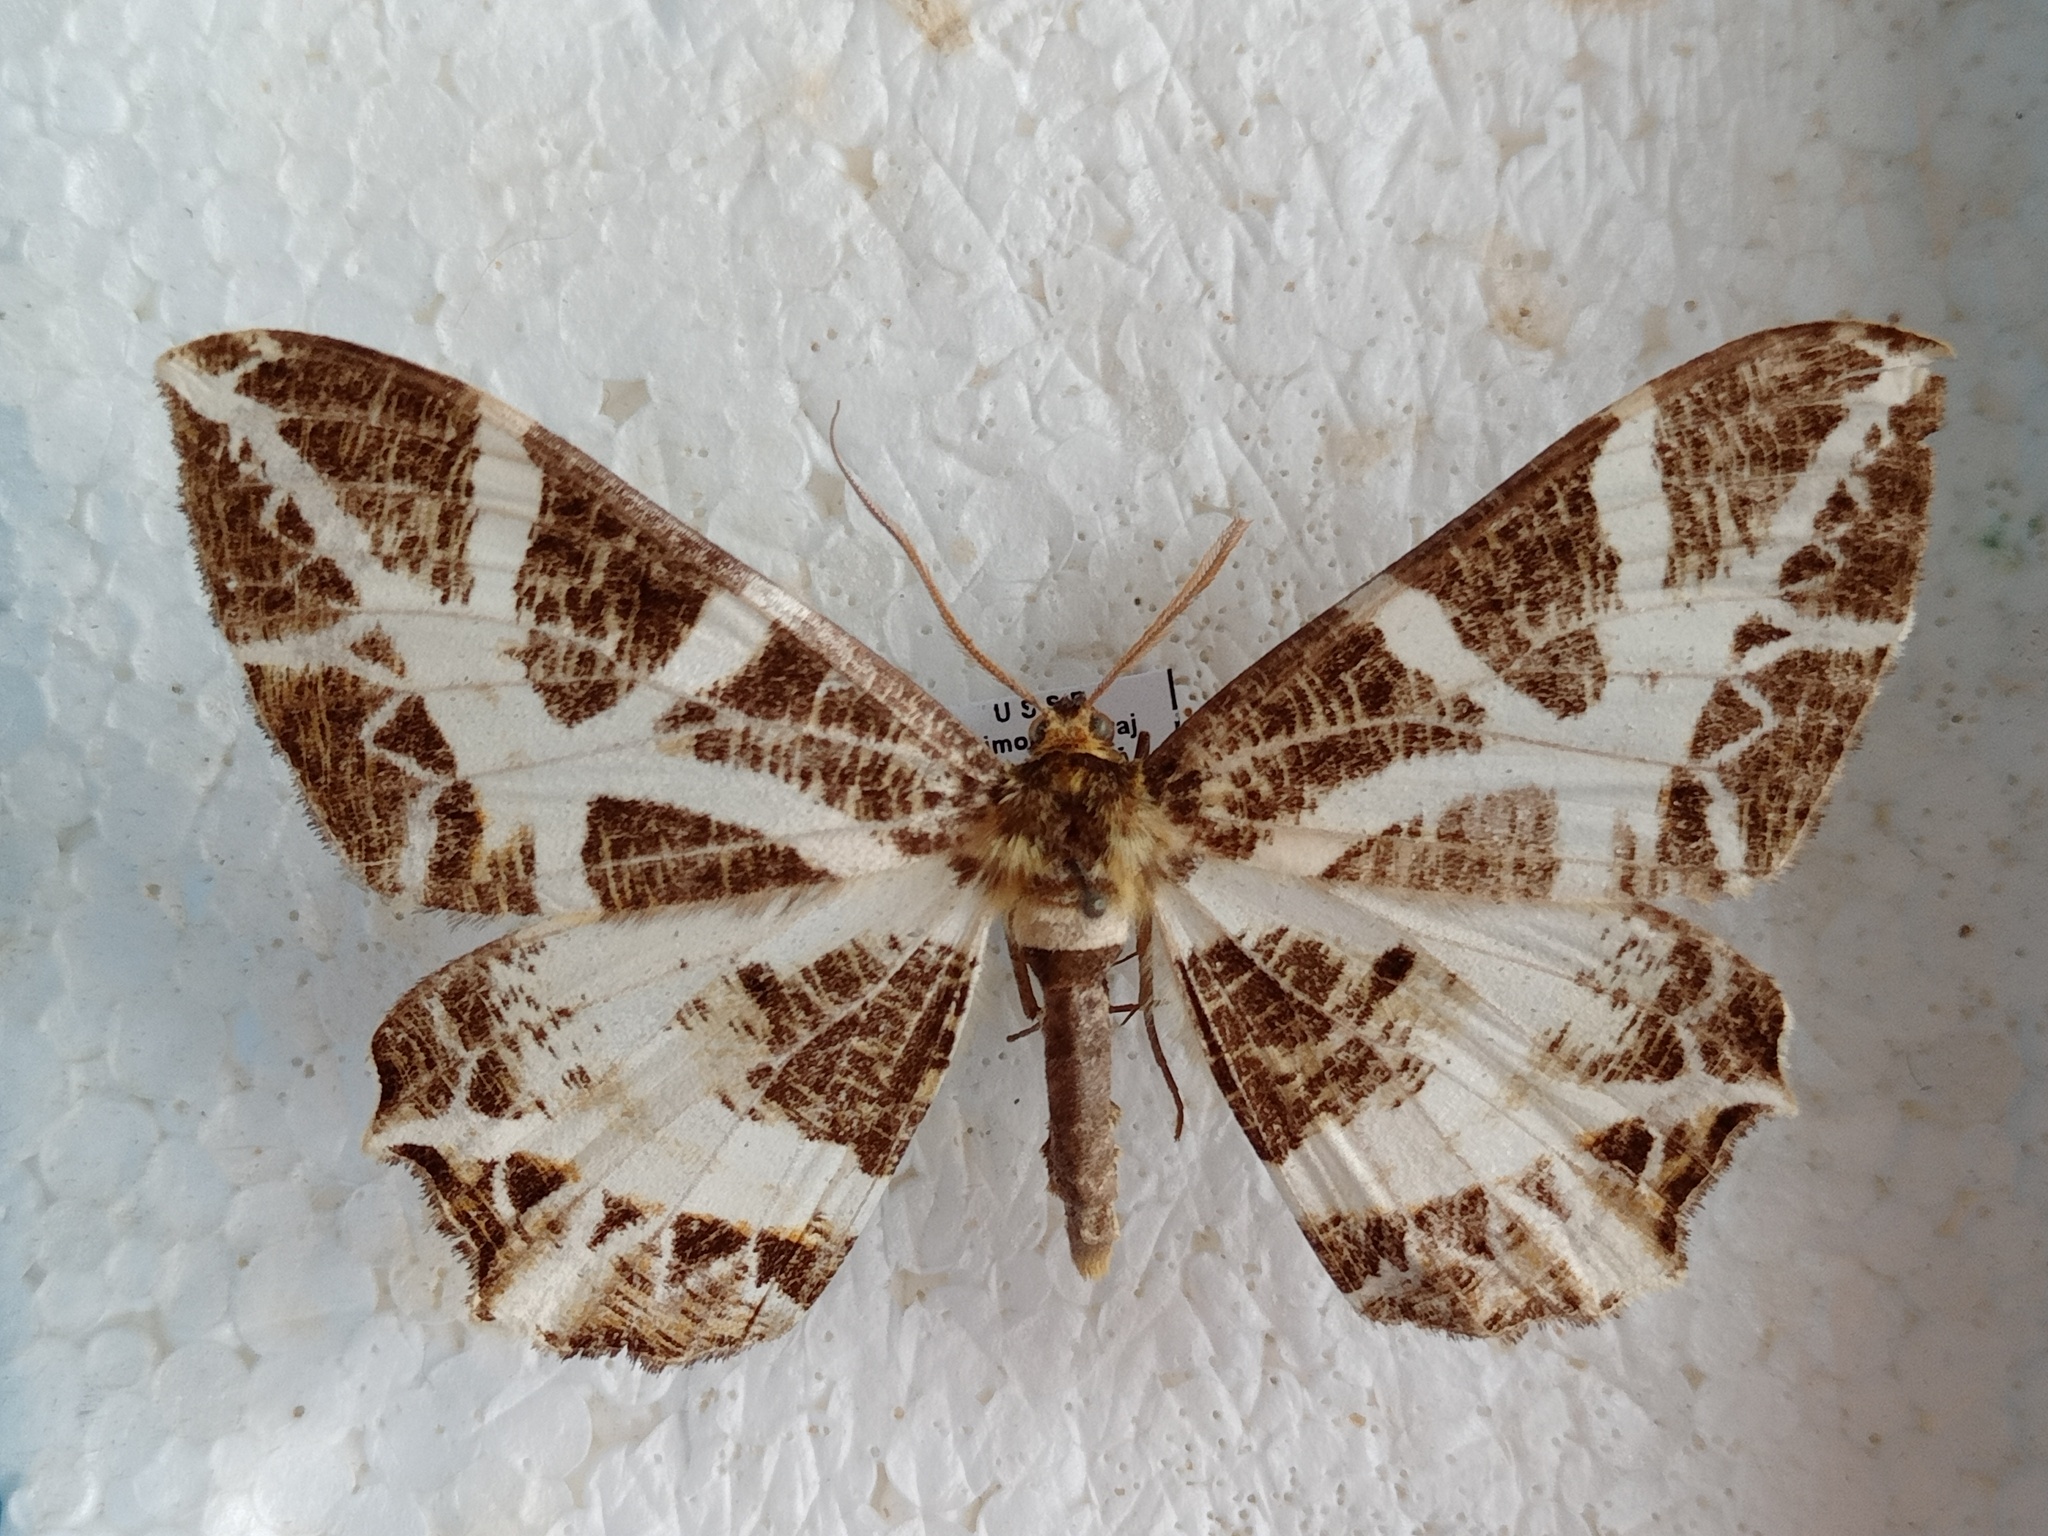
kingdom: Animalia
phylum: Arthropoda
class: Insecta
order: Lepidoptera
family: Geometridae
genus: Mesastrape
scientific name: Mesastrape fulguraria
